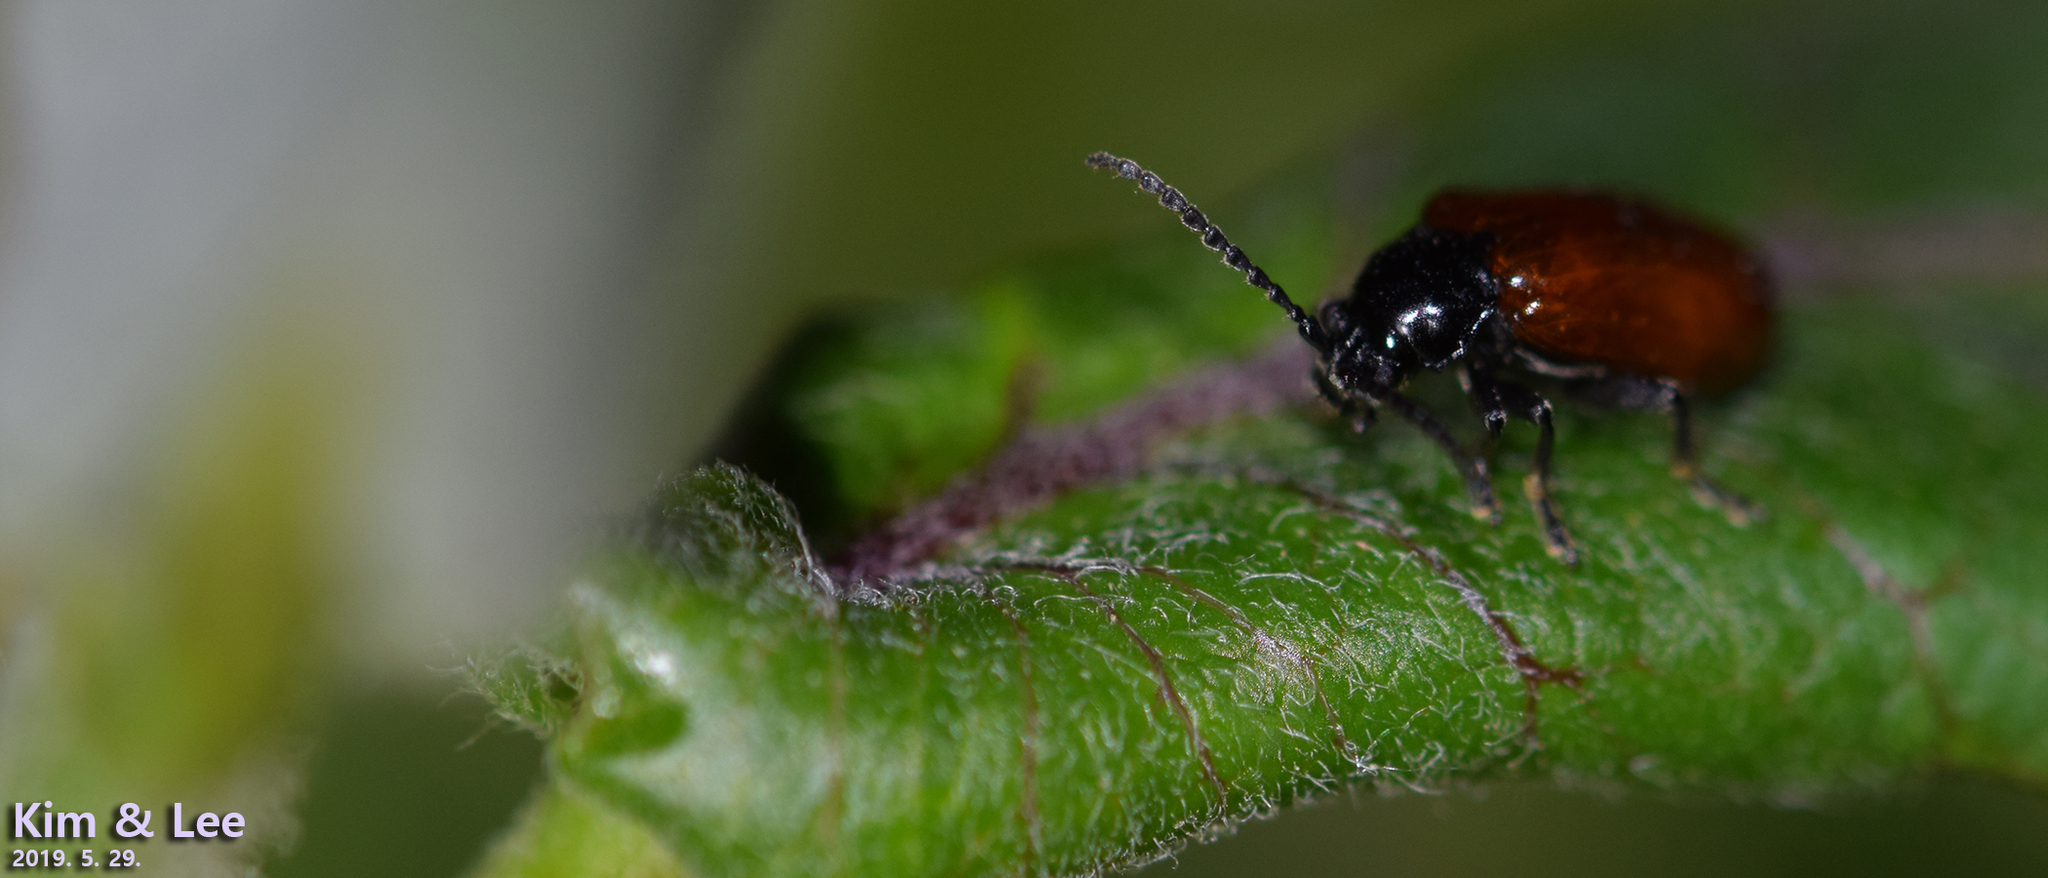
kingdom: Animalia
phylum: Arthropoda
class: Insecta
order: Coleoptera
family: Chrysomelidae
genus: Phygasia
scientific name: Phygasia fulvipennis
